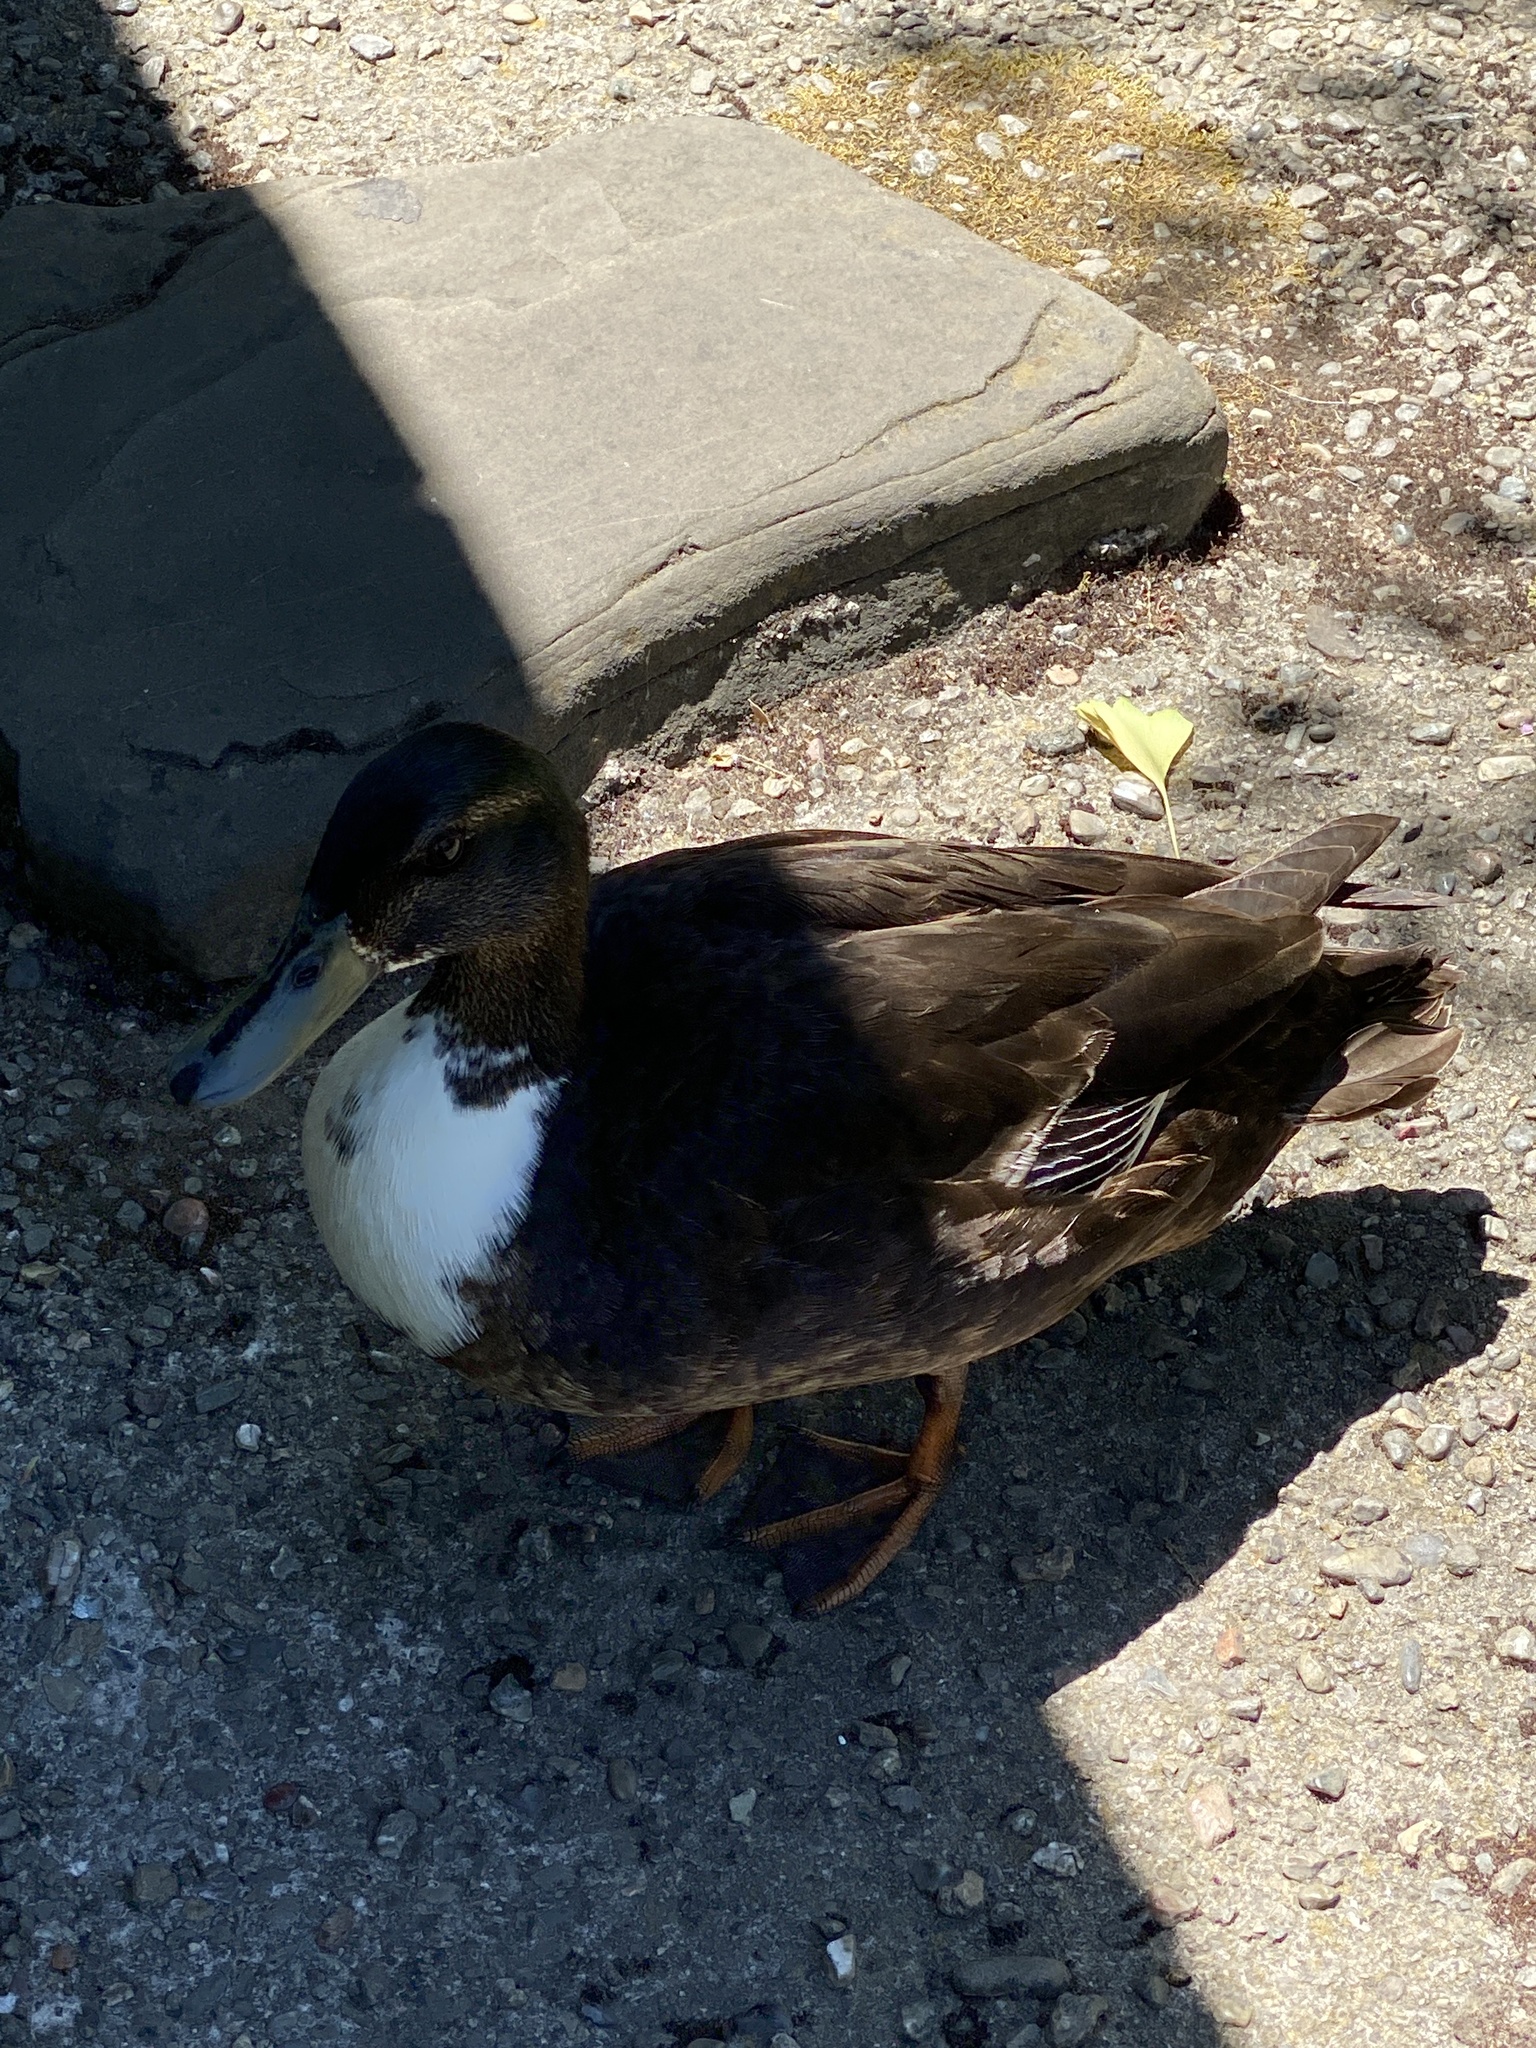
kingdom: Animalia
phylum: Chordata
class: Aves
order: Anseriformes
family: Anatidae
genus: Anas
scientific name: Anas platyrhynchos
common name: Mallard
